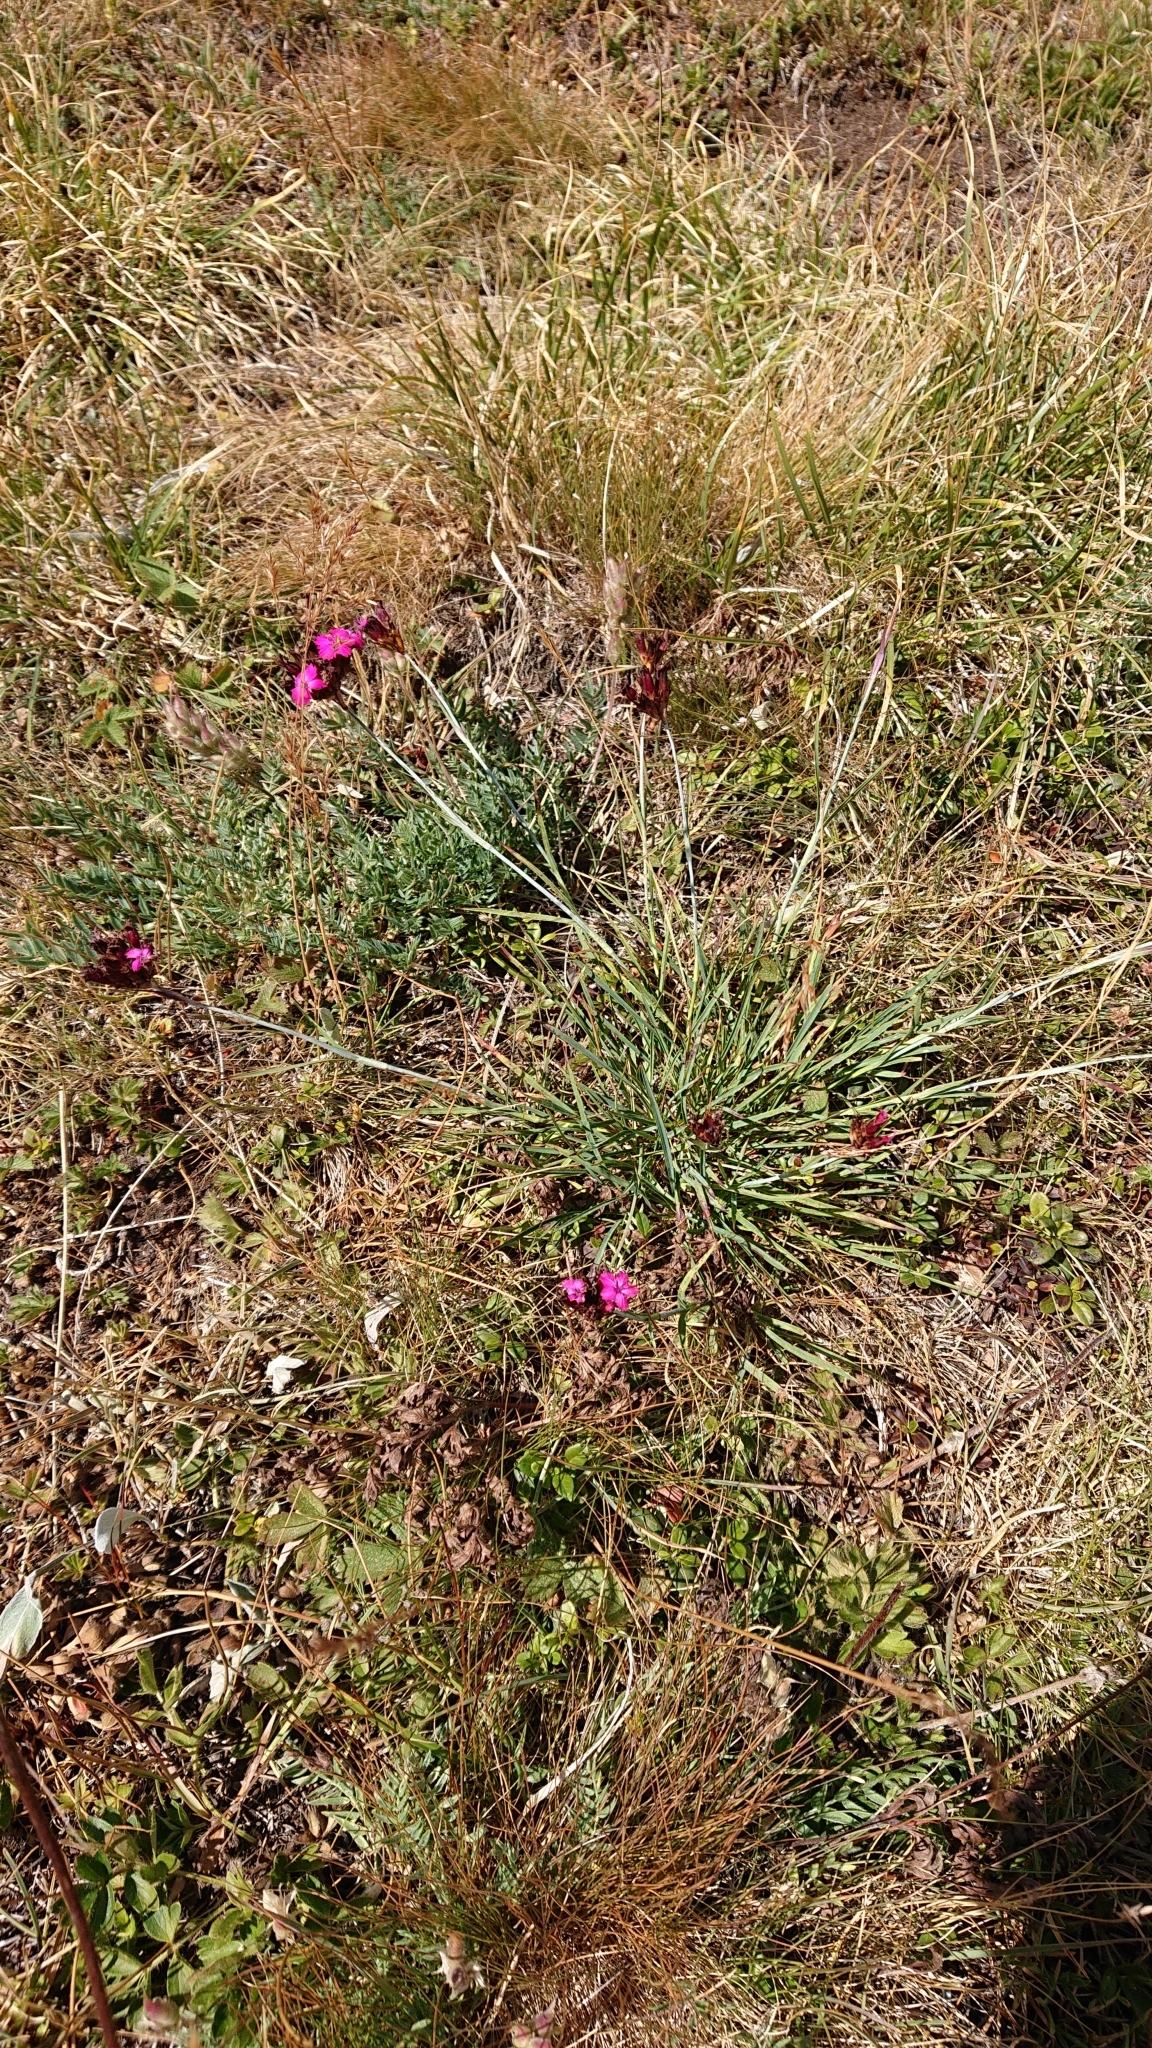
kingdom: Plantae
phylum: Tracheophyta
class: Magnoliopsida
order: Caryophyllales
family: Caryophyllaceae
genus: Dianthus
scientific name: Dianthus carthusianorum
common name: Carthusian pink
